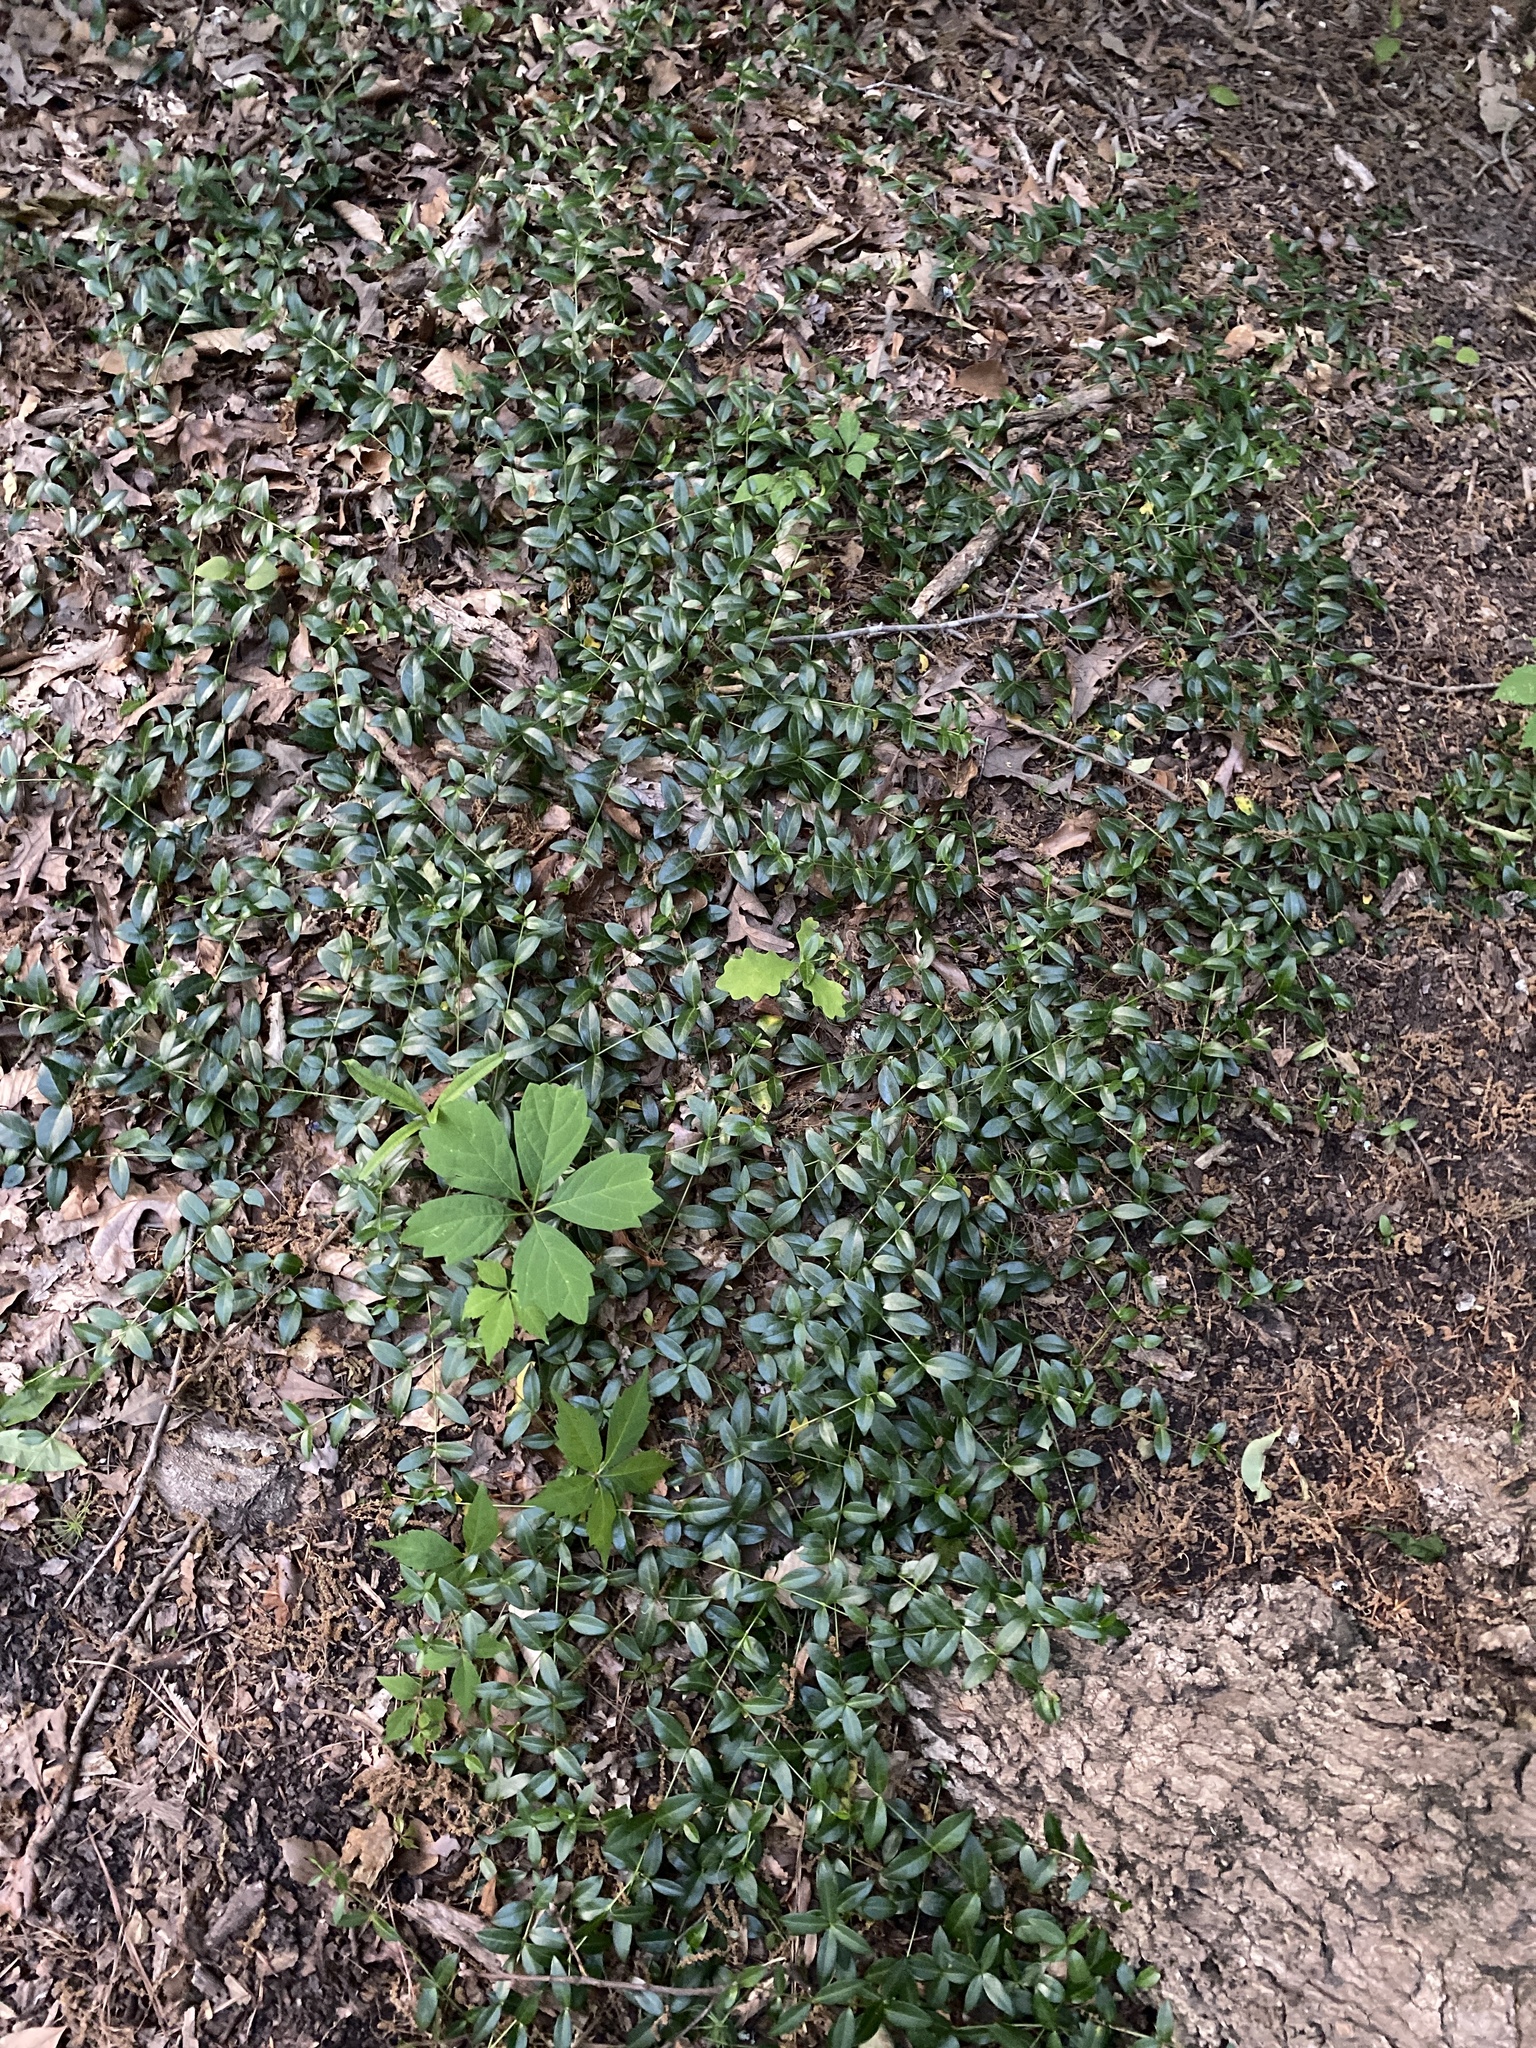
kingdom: Plantae
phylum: Tracheophyta
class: Magnoliopsida
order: Gentianales
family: Apocynaceae
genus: Vinca
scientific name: Vinca minor
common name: Lesser periwinkle
